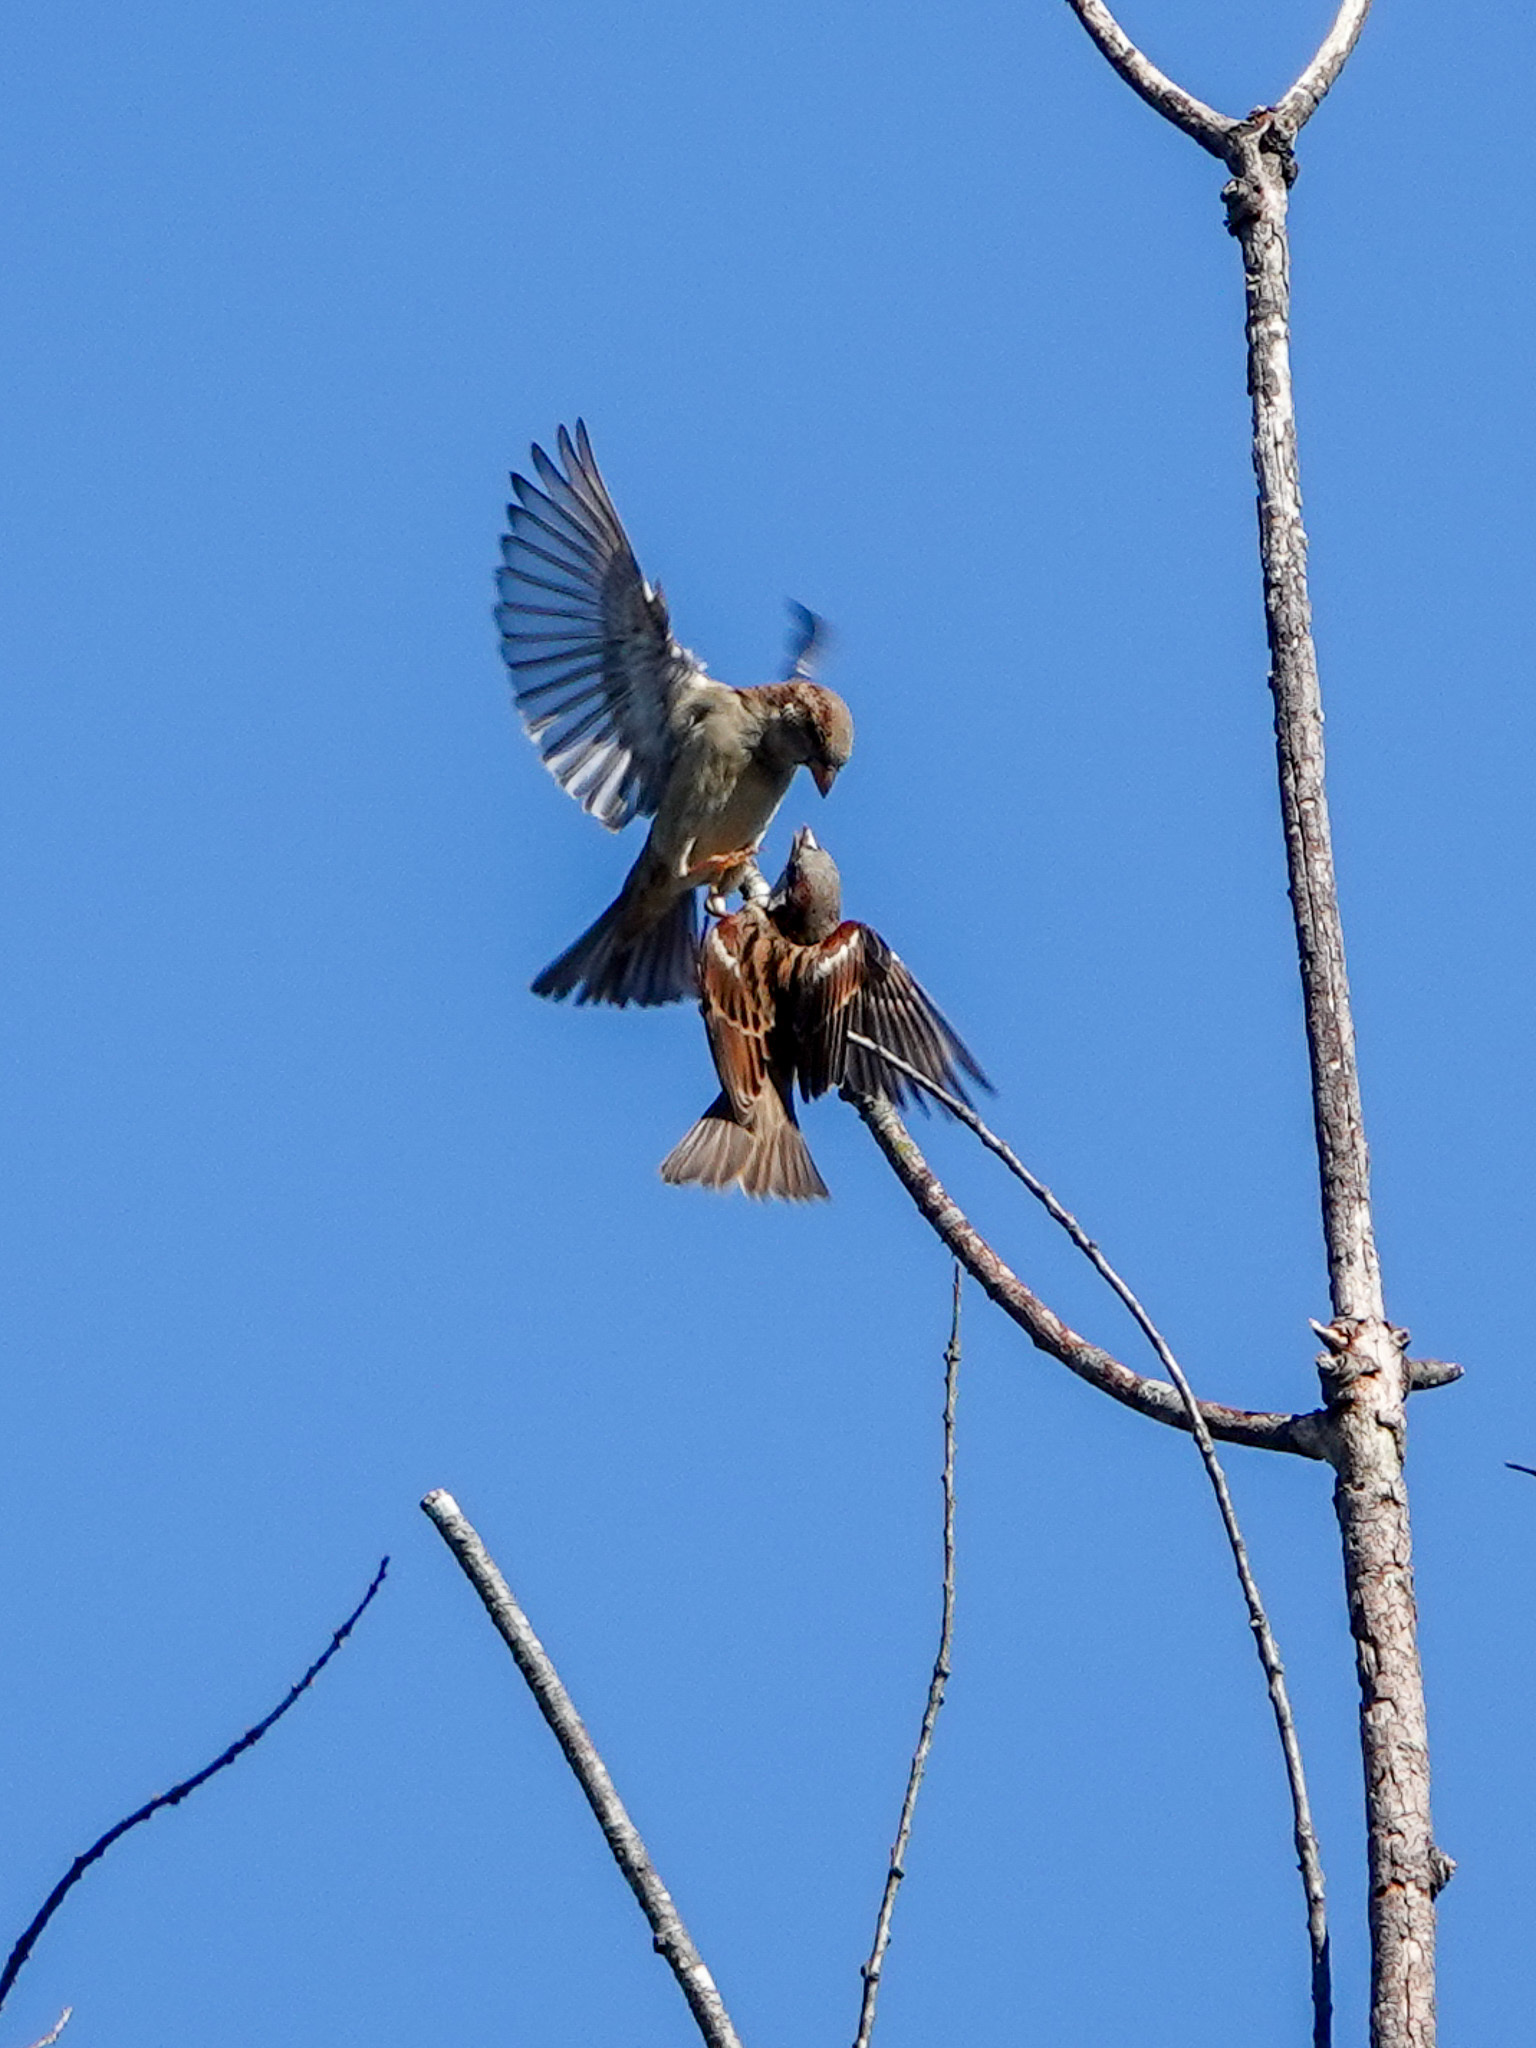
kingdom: Animalia
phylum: Chordata
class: Aves
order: Passeriformes
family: Passeridae
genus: Passer
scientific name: Passer domesticus
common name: House sparrow
